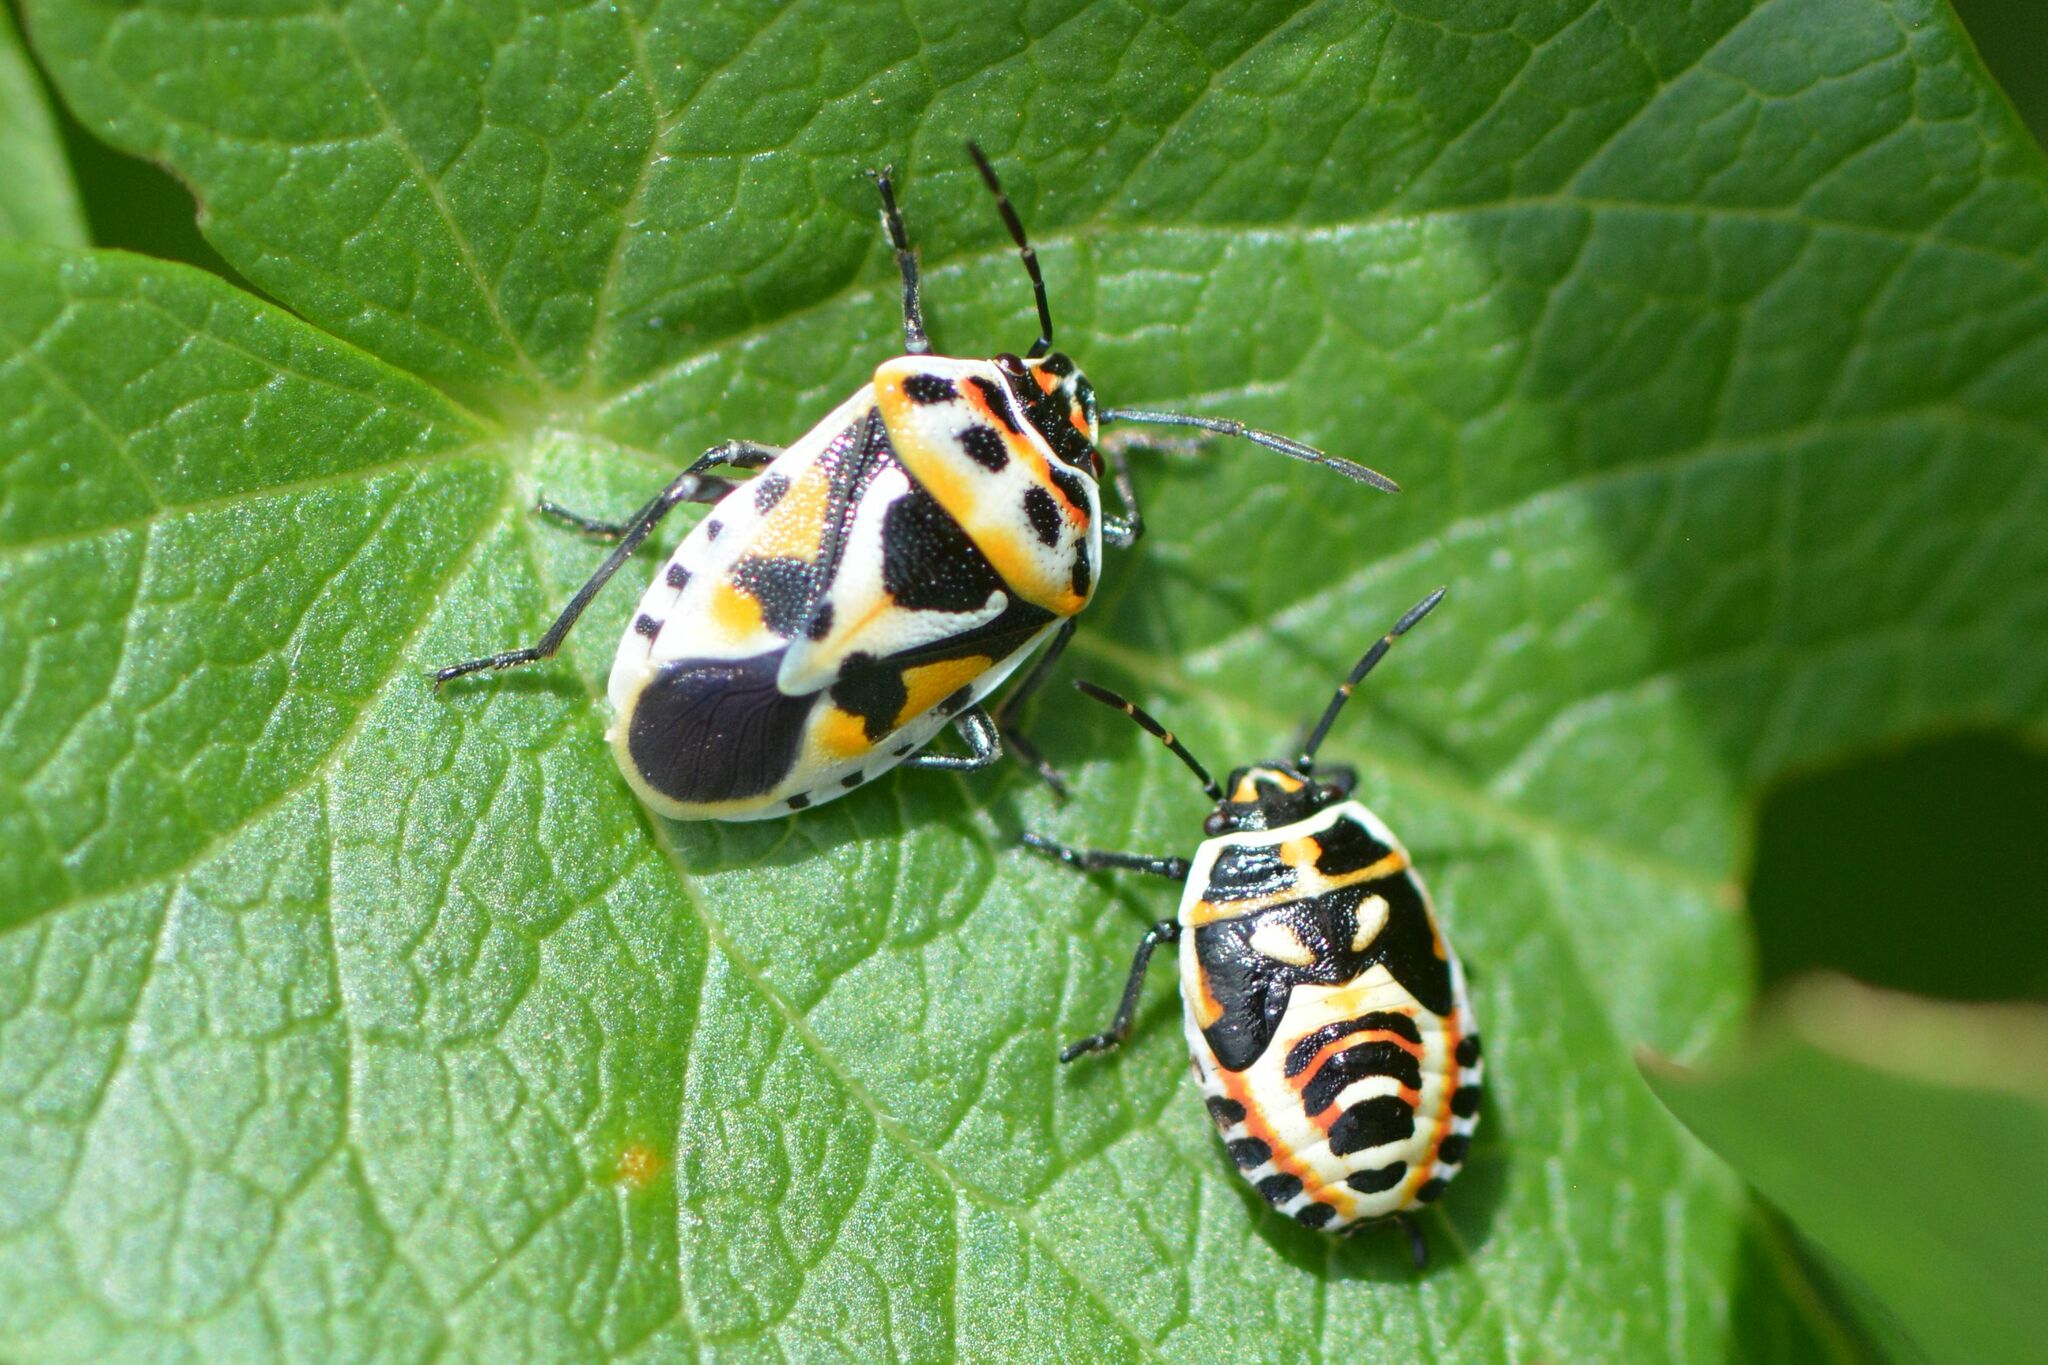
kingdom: Animalia
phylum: Arthropoda
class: Insecta
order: Hemiptera
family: Pentatomidae
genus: Eurydema
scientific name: Eurydema ornata
